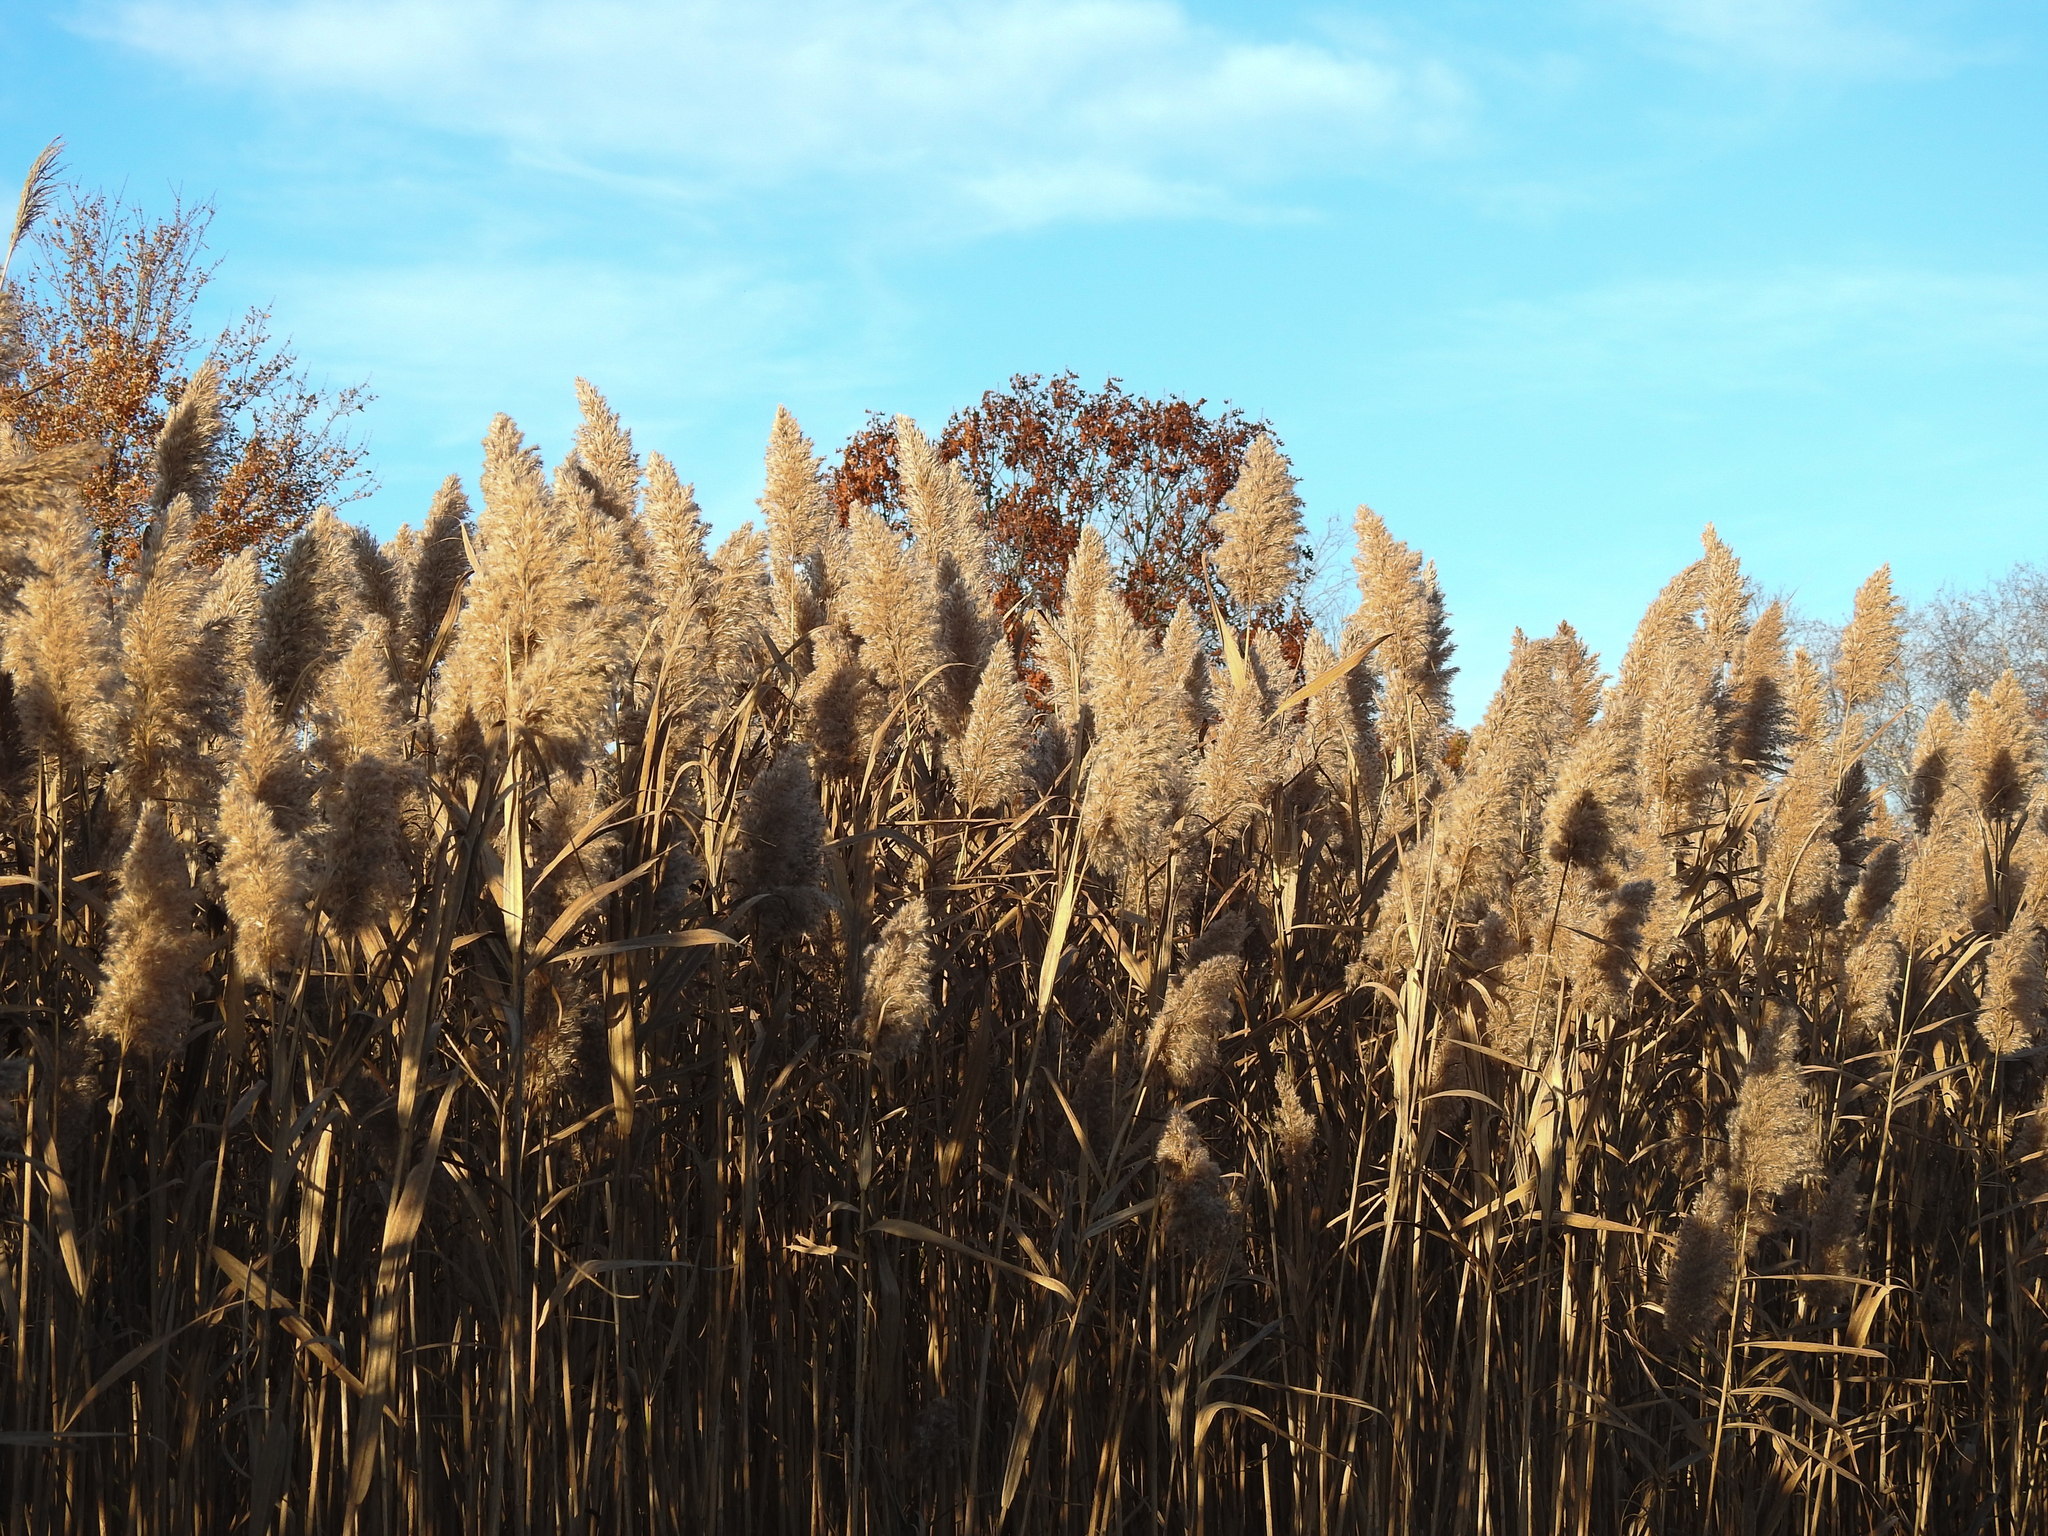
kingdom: Plantae
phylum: Tracheophyta
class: Liliopsida
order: Poales
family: Poaceae
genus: Phragmites
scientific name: Phragmites australis
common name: Common reed
